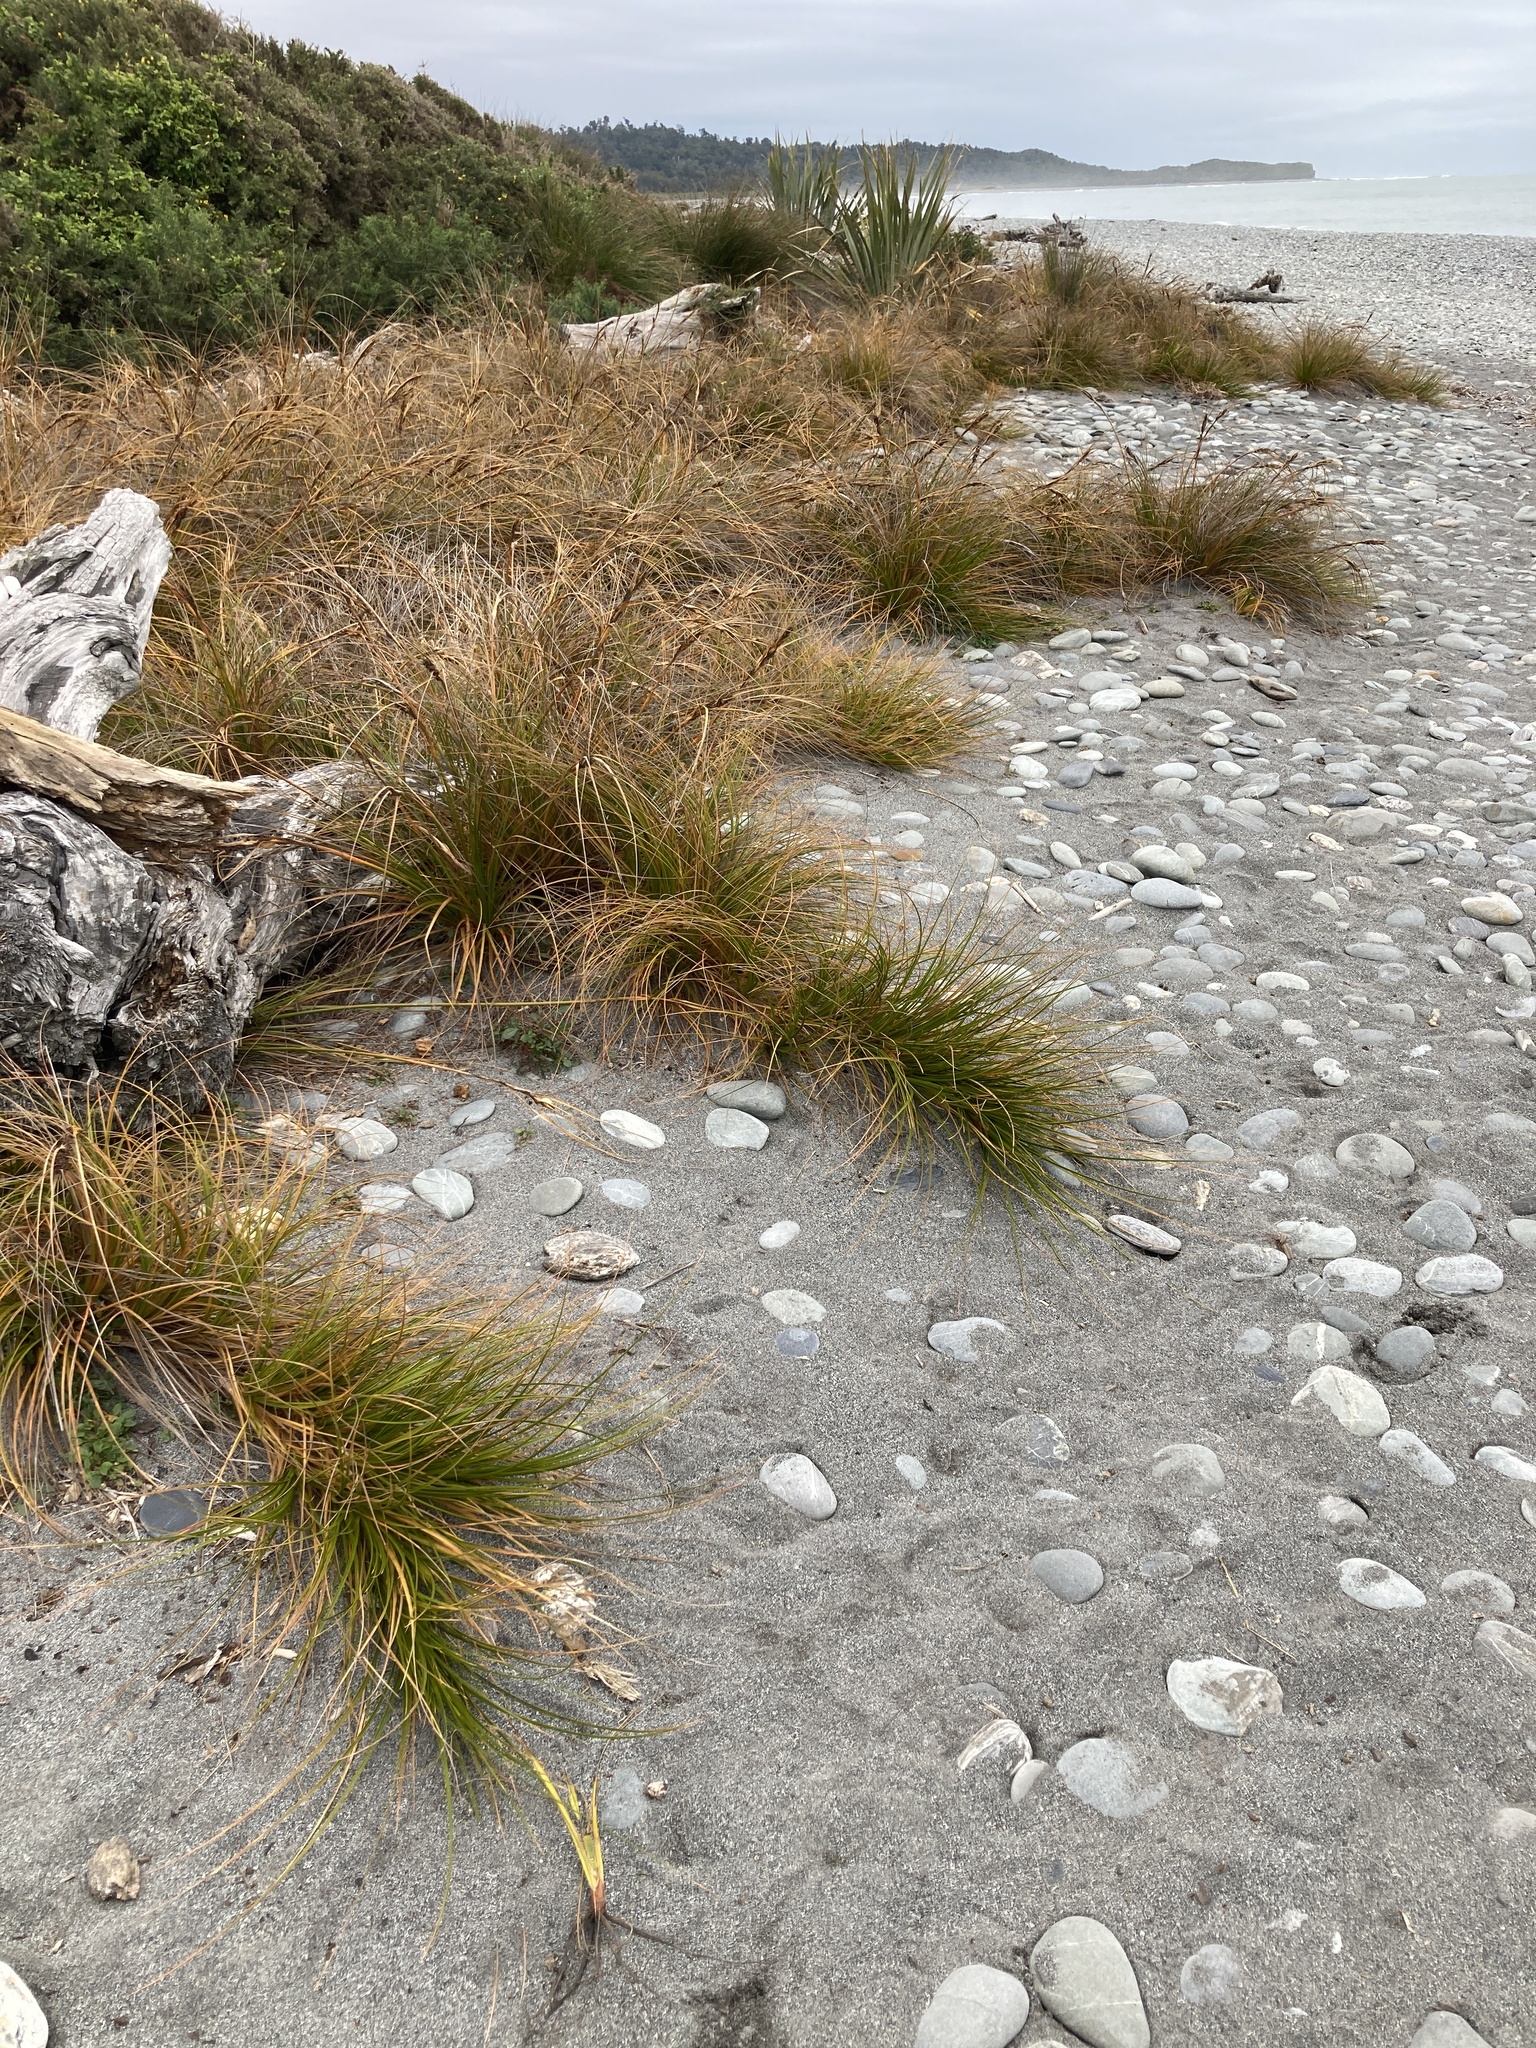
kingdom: Plantae
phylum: Tracheophyta
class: Liliopsida
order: Poales
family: Cyperaceae
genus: Ficinia
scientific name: Ficinia spiralis
